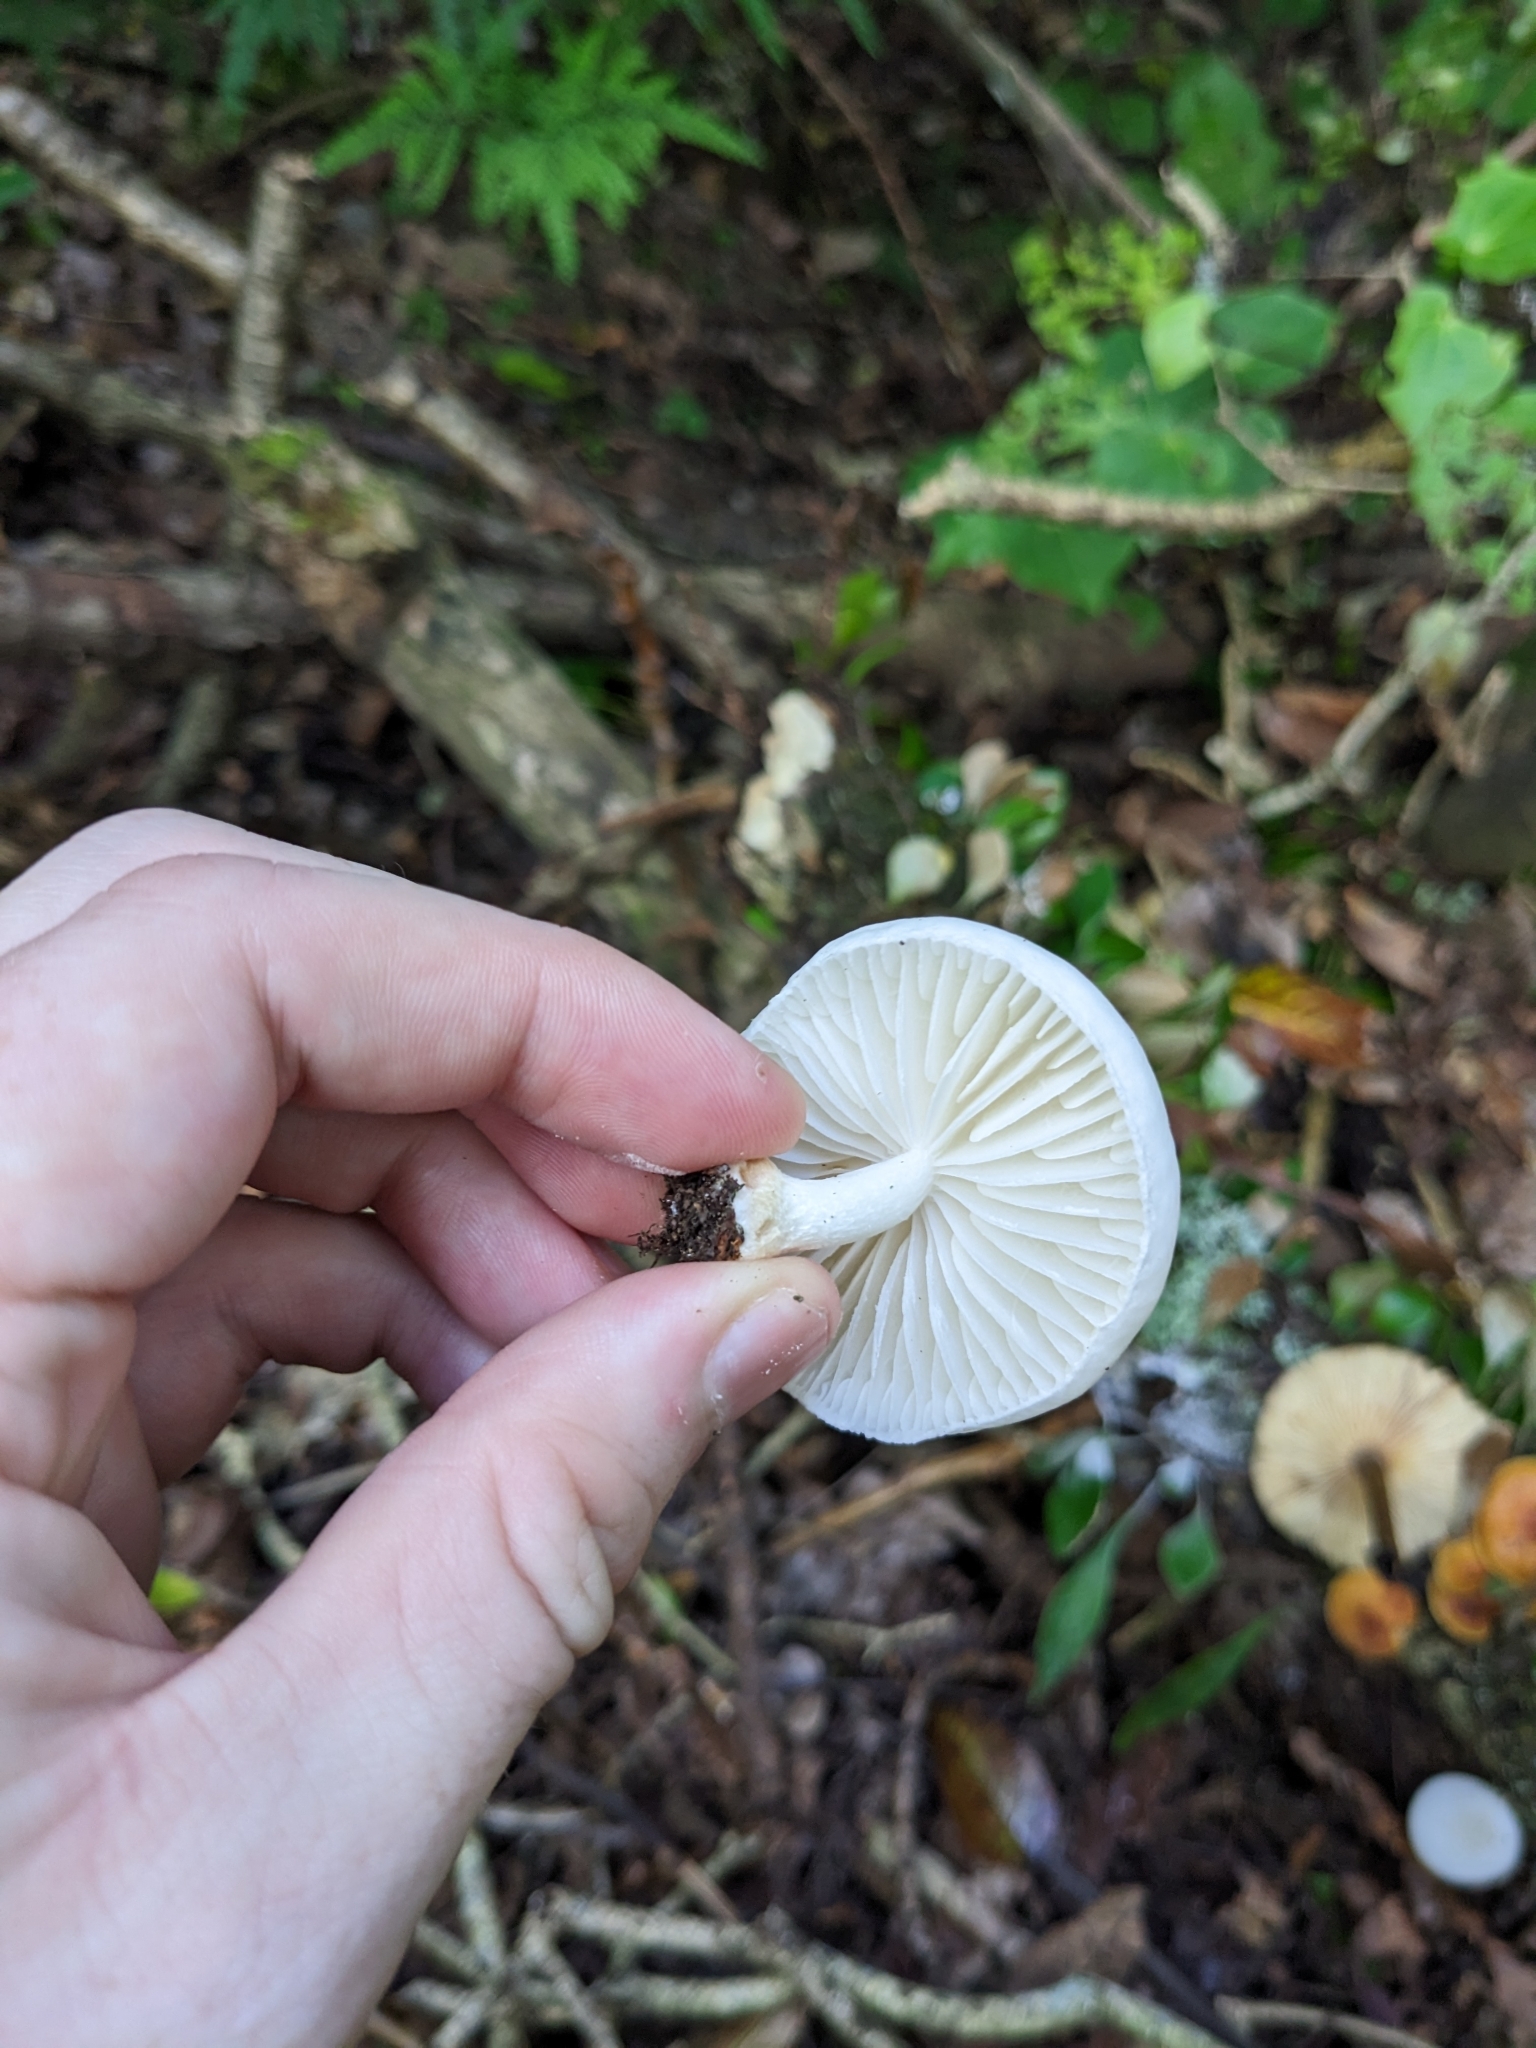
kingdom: Fungi
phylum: Basidiomycota
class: Agaricomycetes
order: Agaricales
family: Physalacriaceae
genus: Oudemansiella
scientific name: Oudemansiella australis
